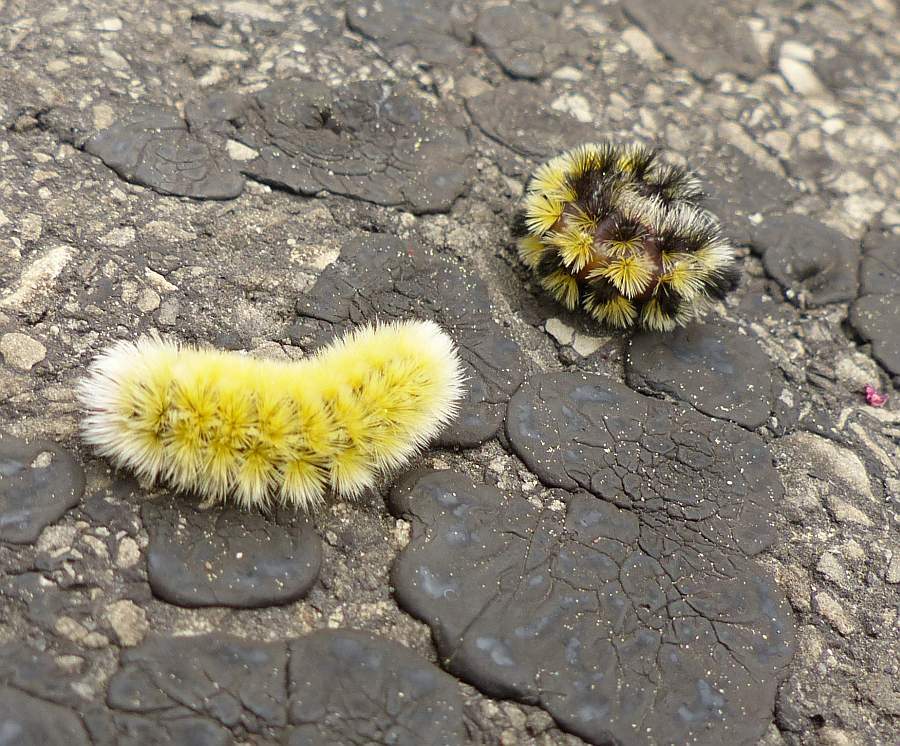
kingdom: Animalia
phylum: Arthropoda
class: Insecta
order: Lepidoptera
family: Erebidae
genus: Ctenucha
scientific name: Ctenucha virginica
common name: Virginia ctenucha moth
